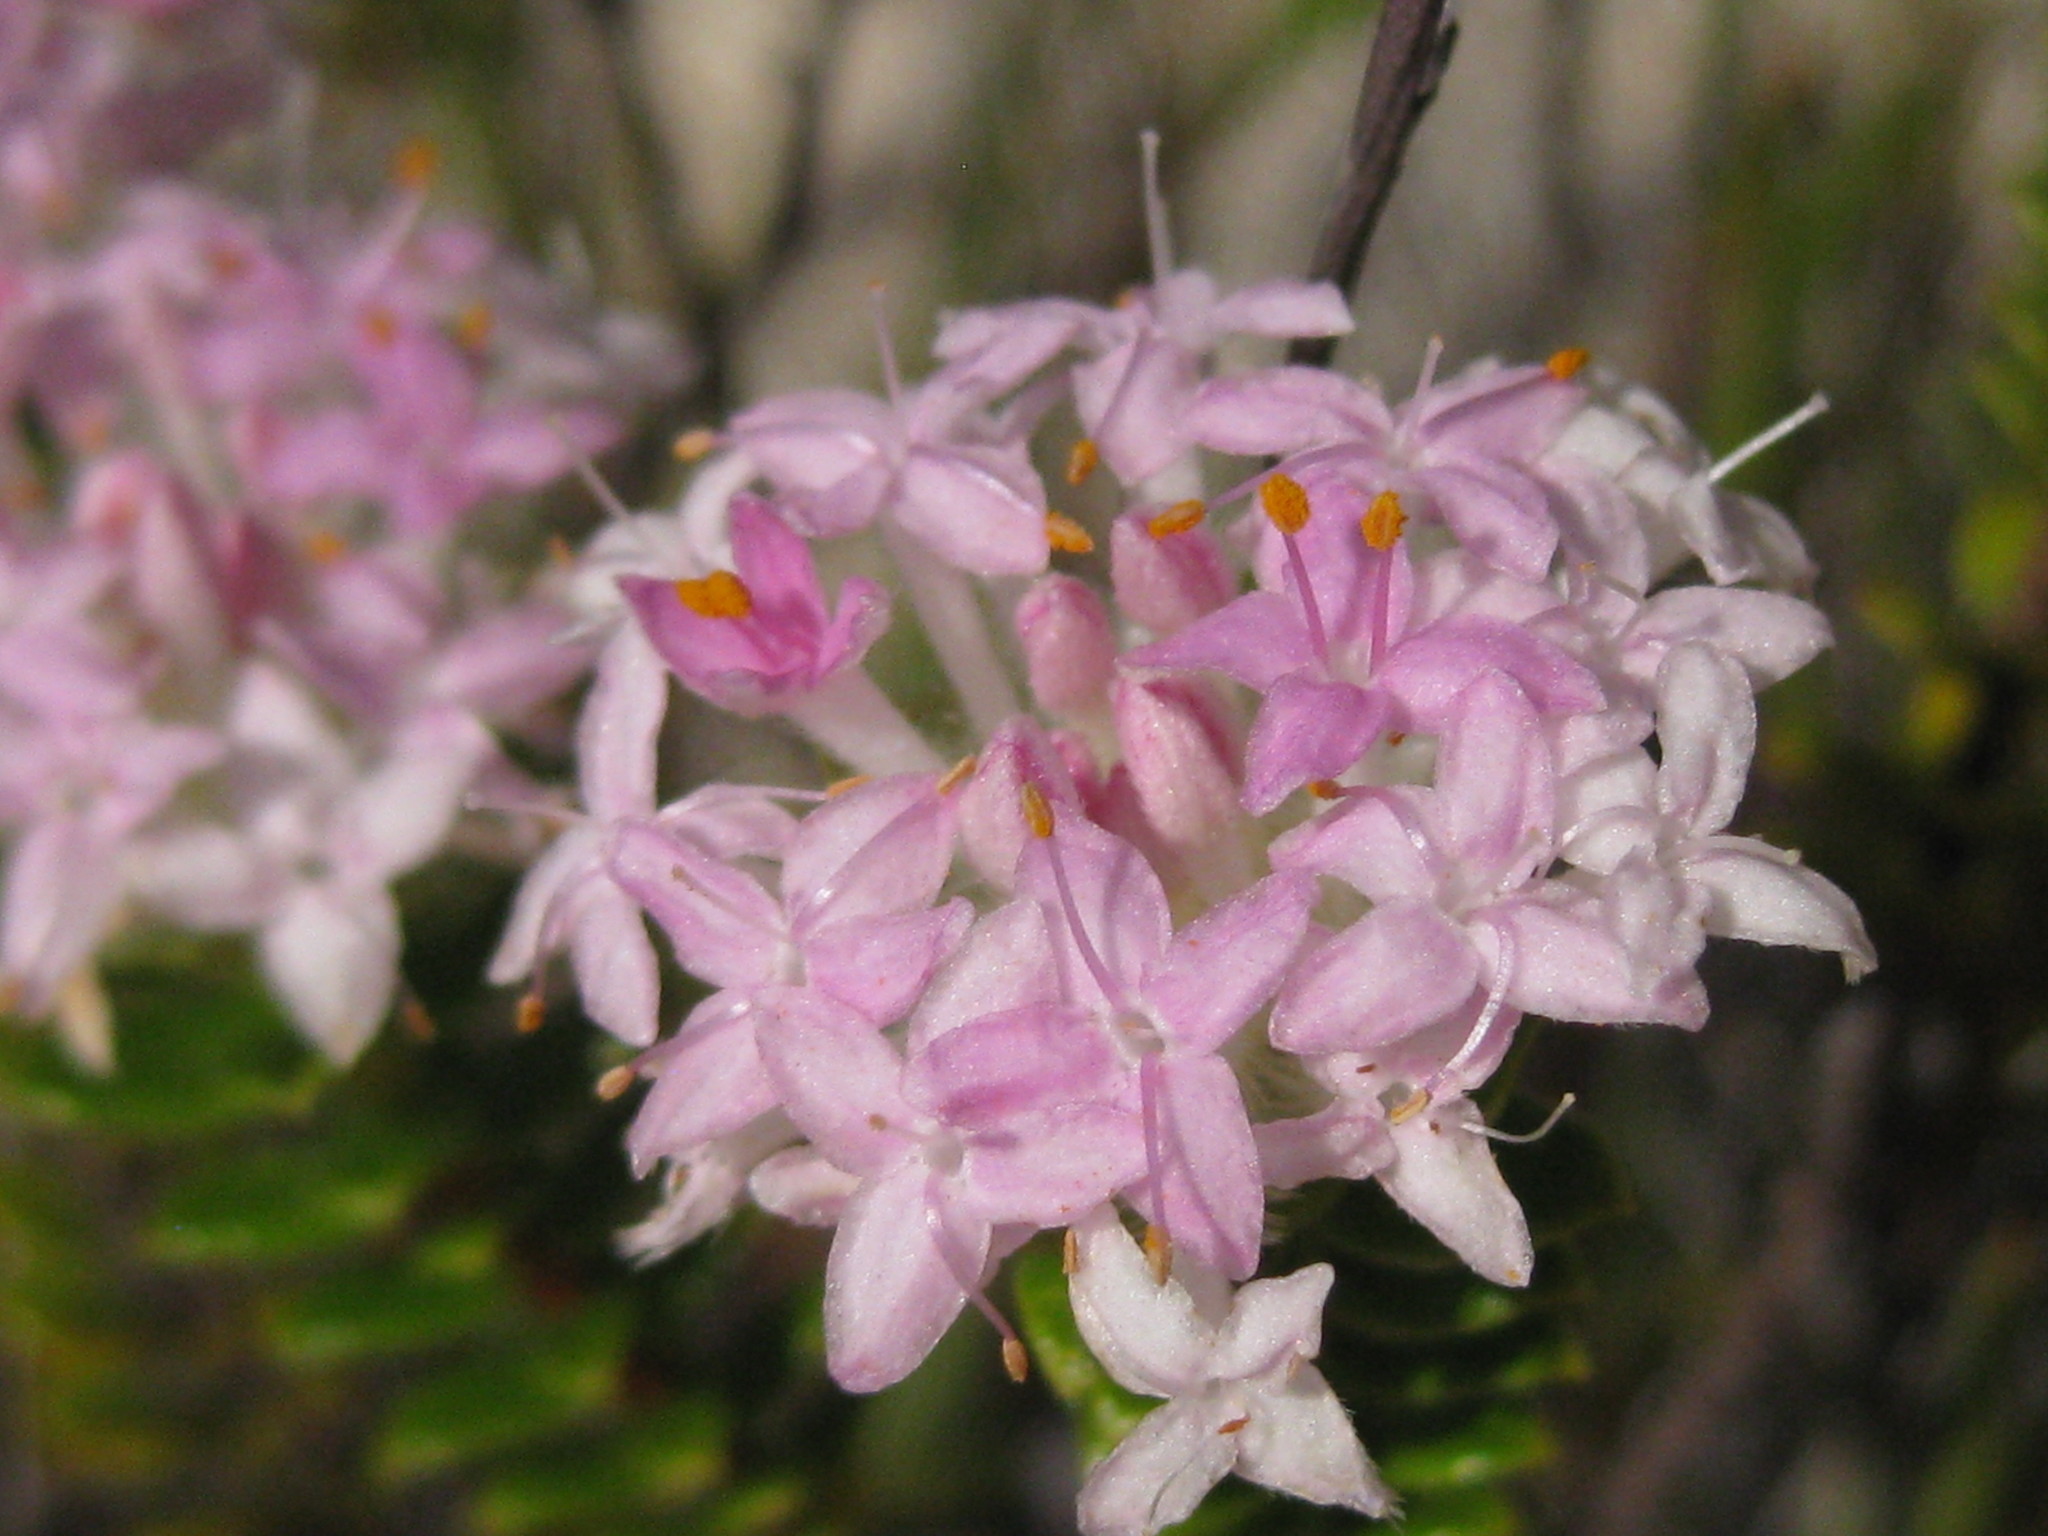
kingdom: Plantae
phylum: Tracheophyta
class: Magnoliopsida
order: Malvales
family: Thymelaeaceae
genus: Pimelea
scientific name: Pimelea ferruginea
